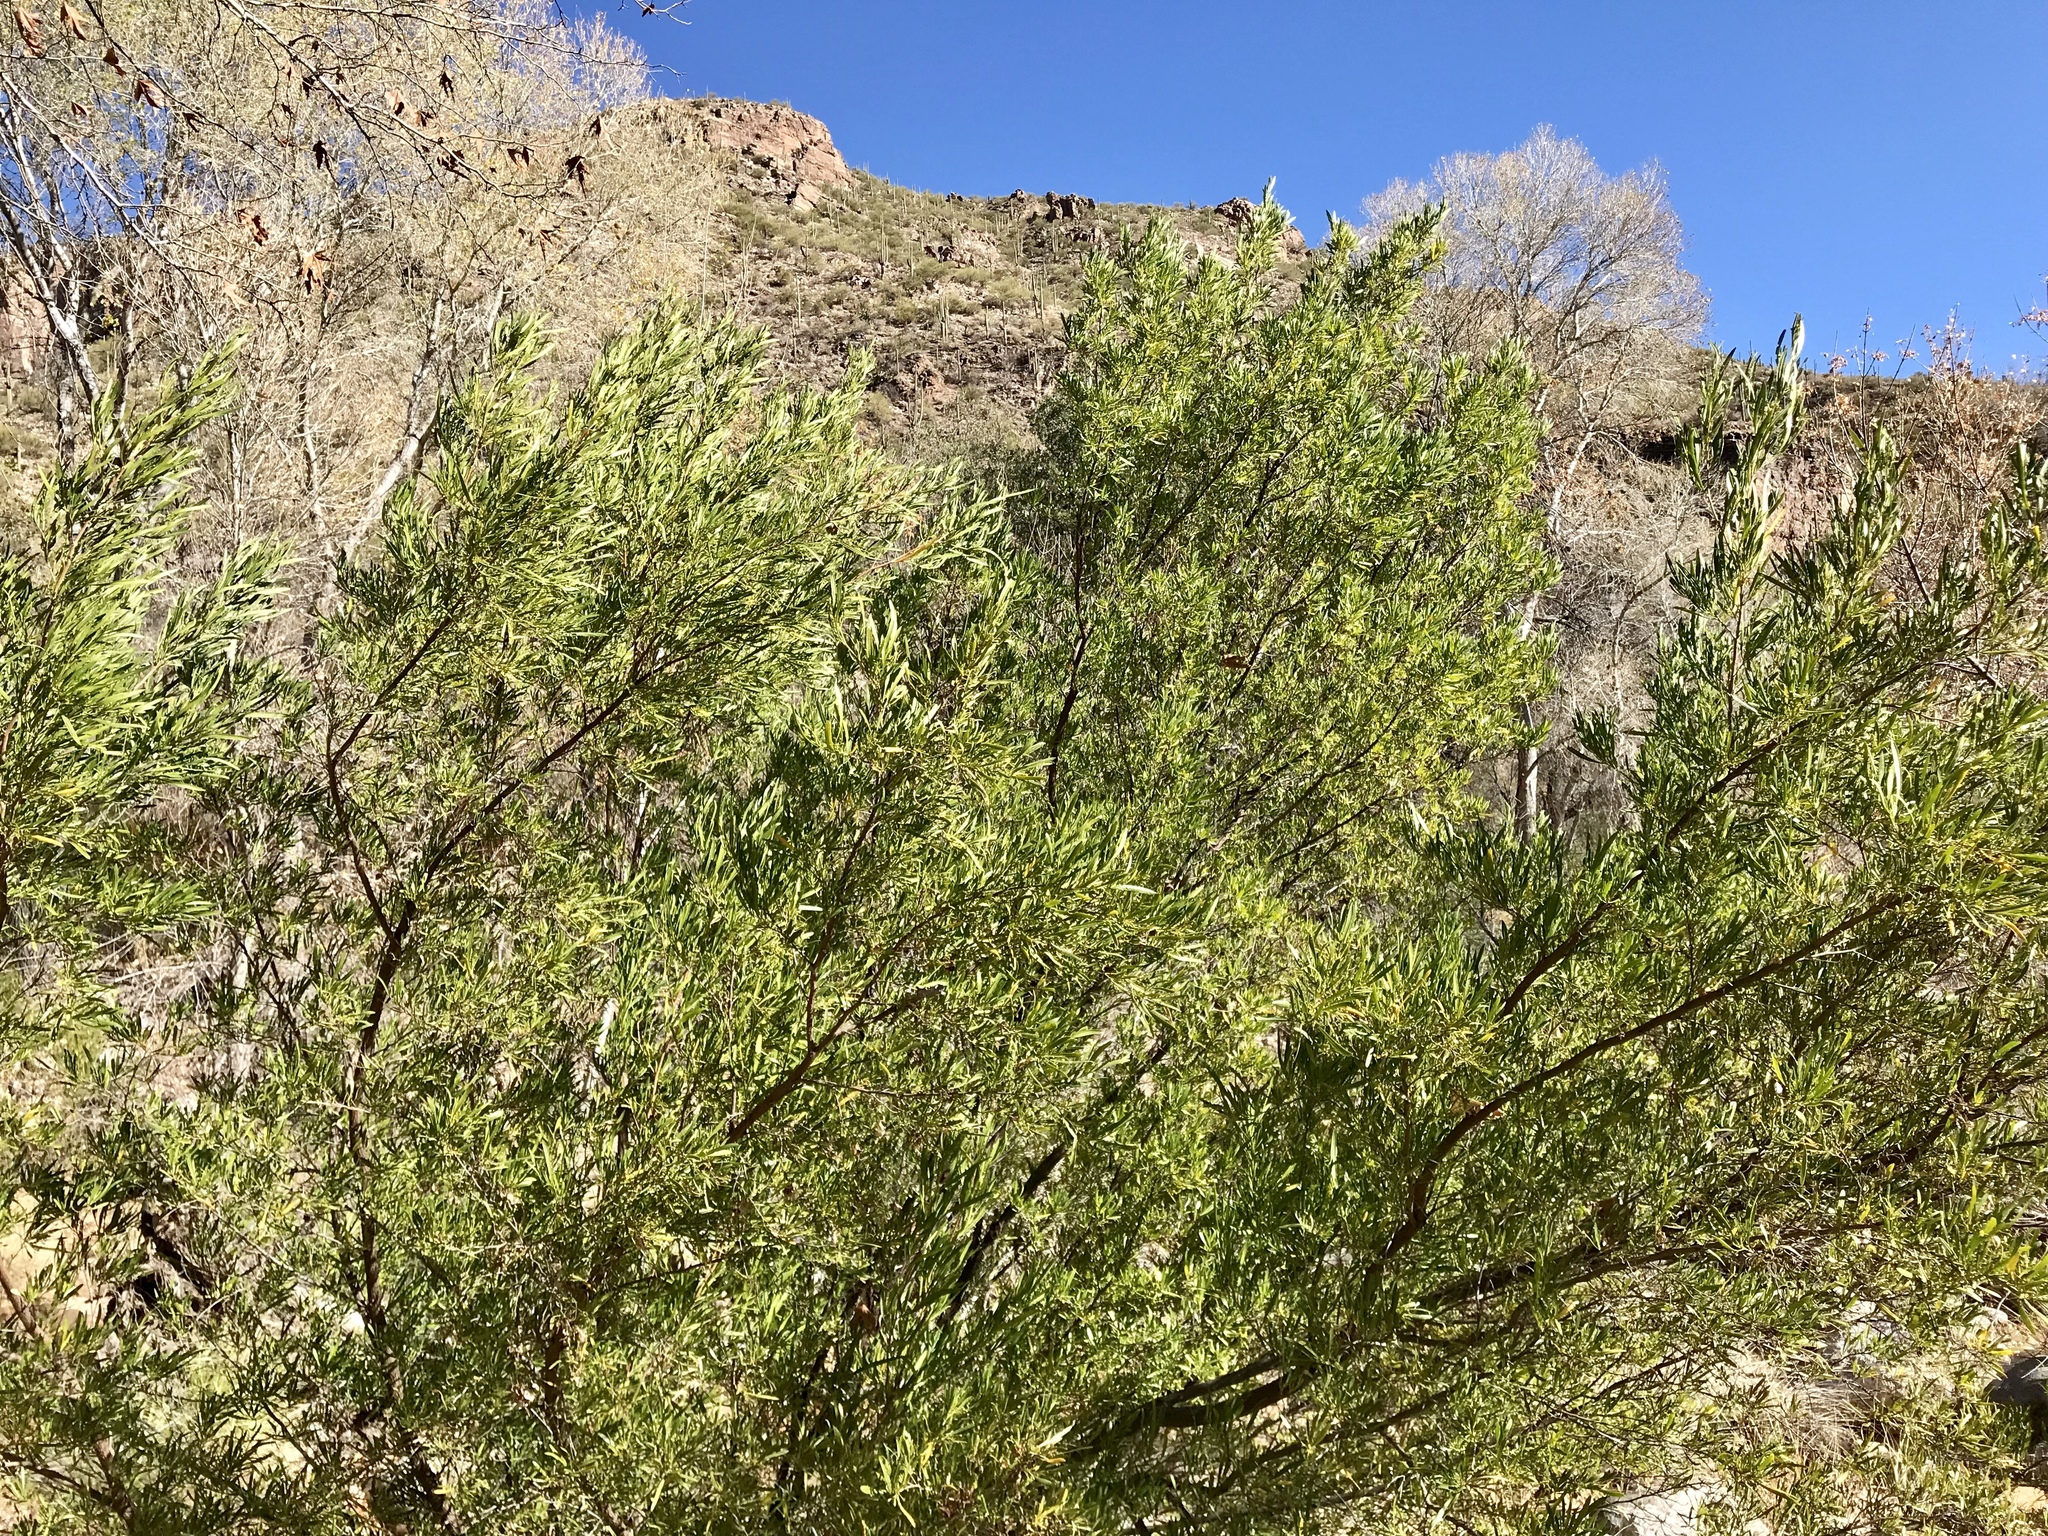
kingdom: Plantae
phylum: Tracheophyta
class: Magnoliopsida
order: Sapindales
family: Sapindaceae
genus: Dodonaea
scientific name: Dodonaea viscosa
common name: Hopbush
